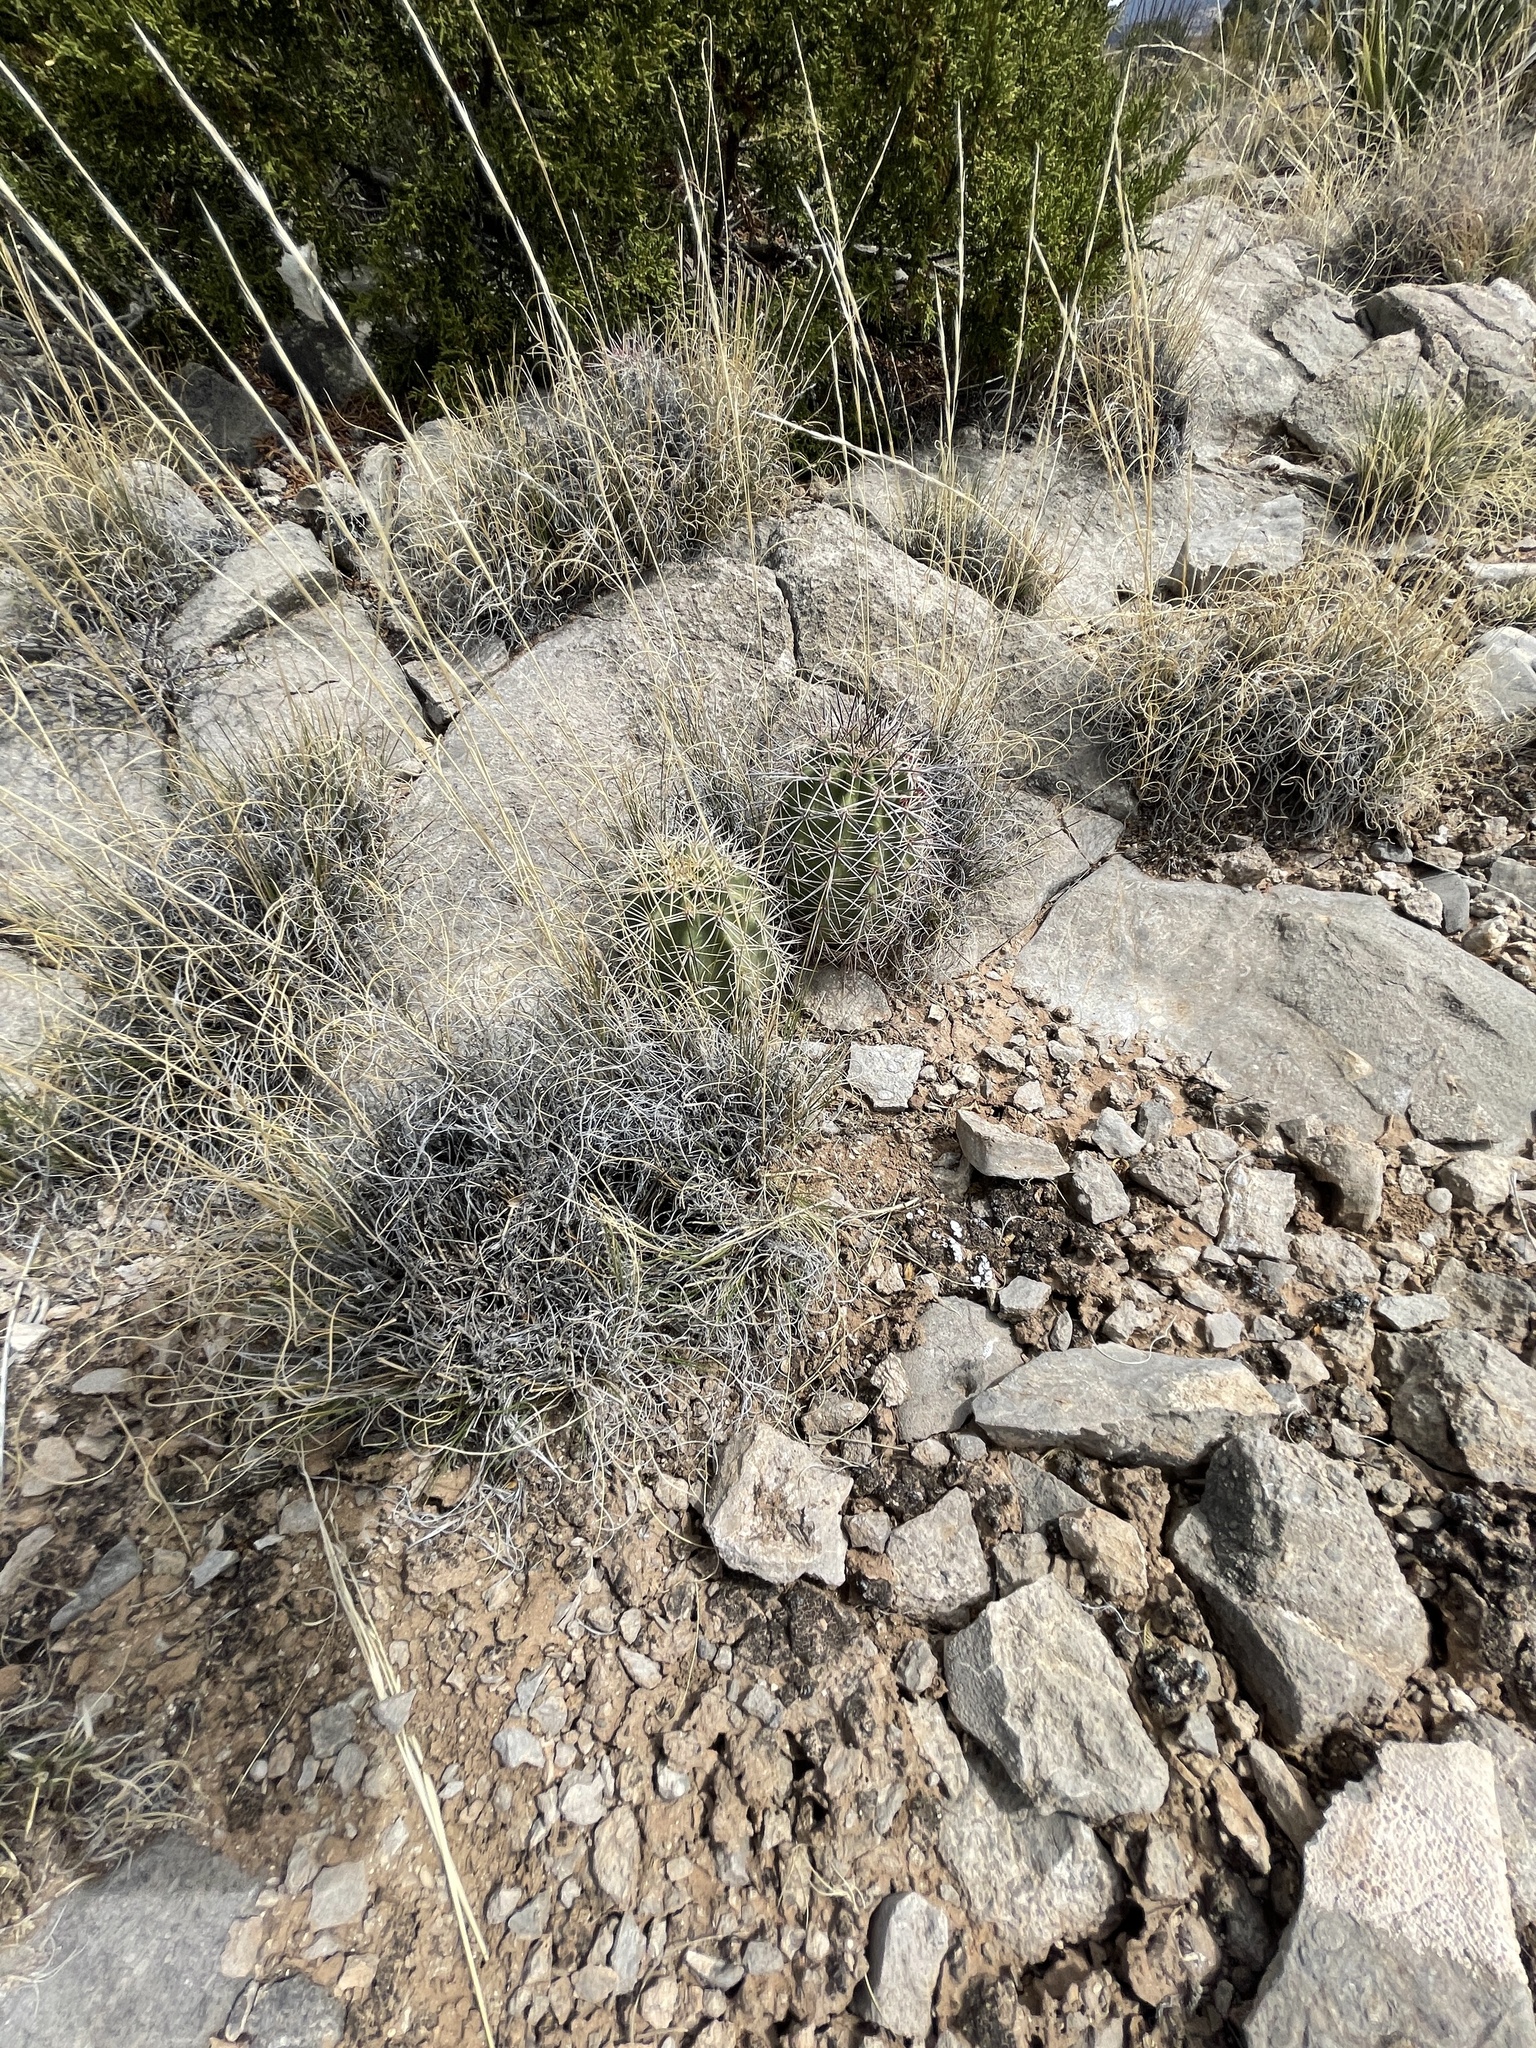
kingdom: Plantae
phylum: Tracheophyta
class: Magnoliopsida
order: Caryophyllales
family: Cactaceae
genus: Echinocereus
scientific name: Echinocereus coccineus
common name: Scarlet hedgehog cactus
